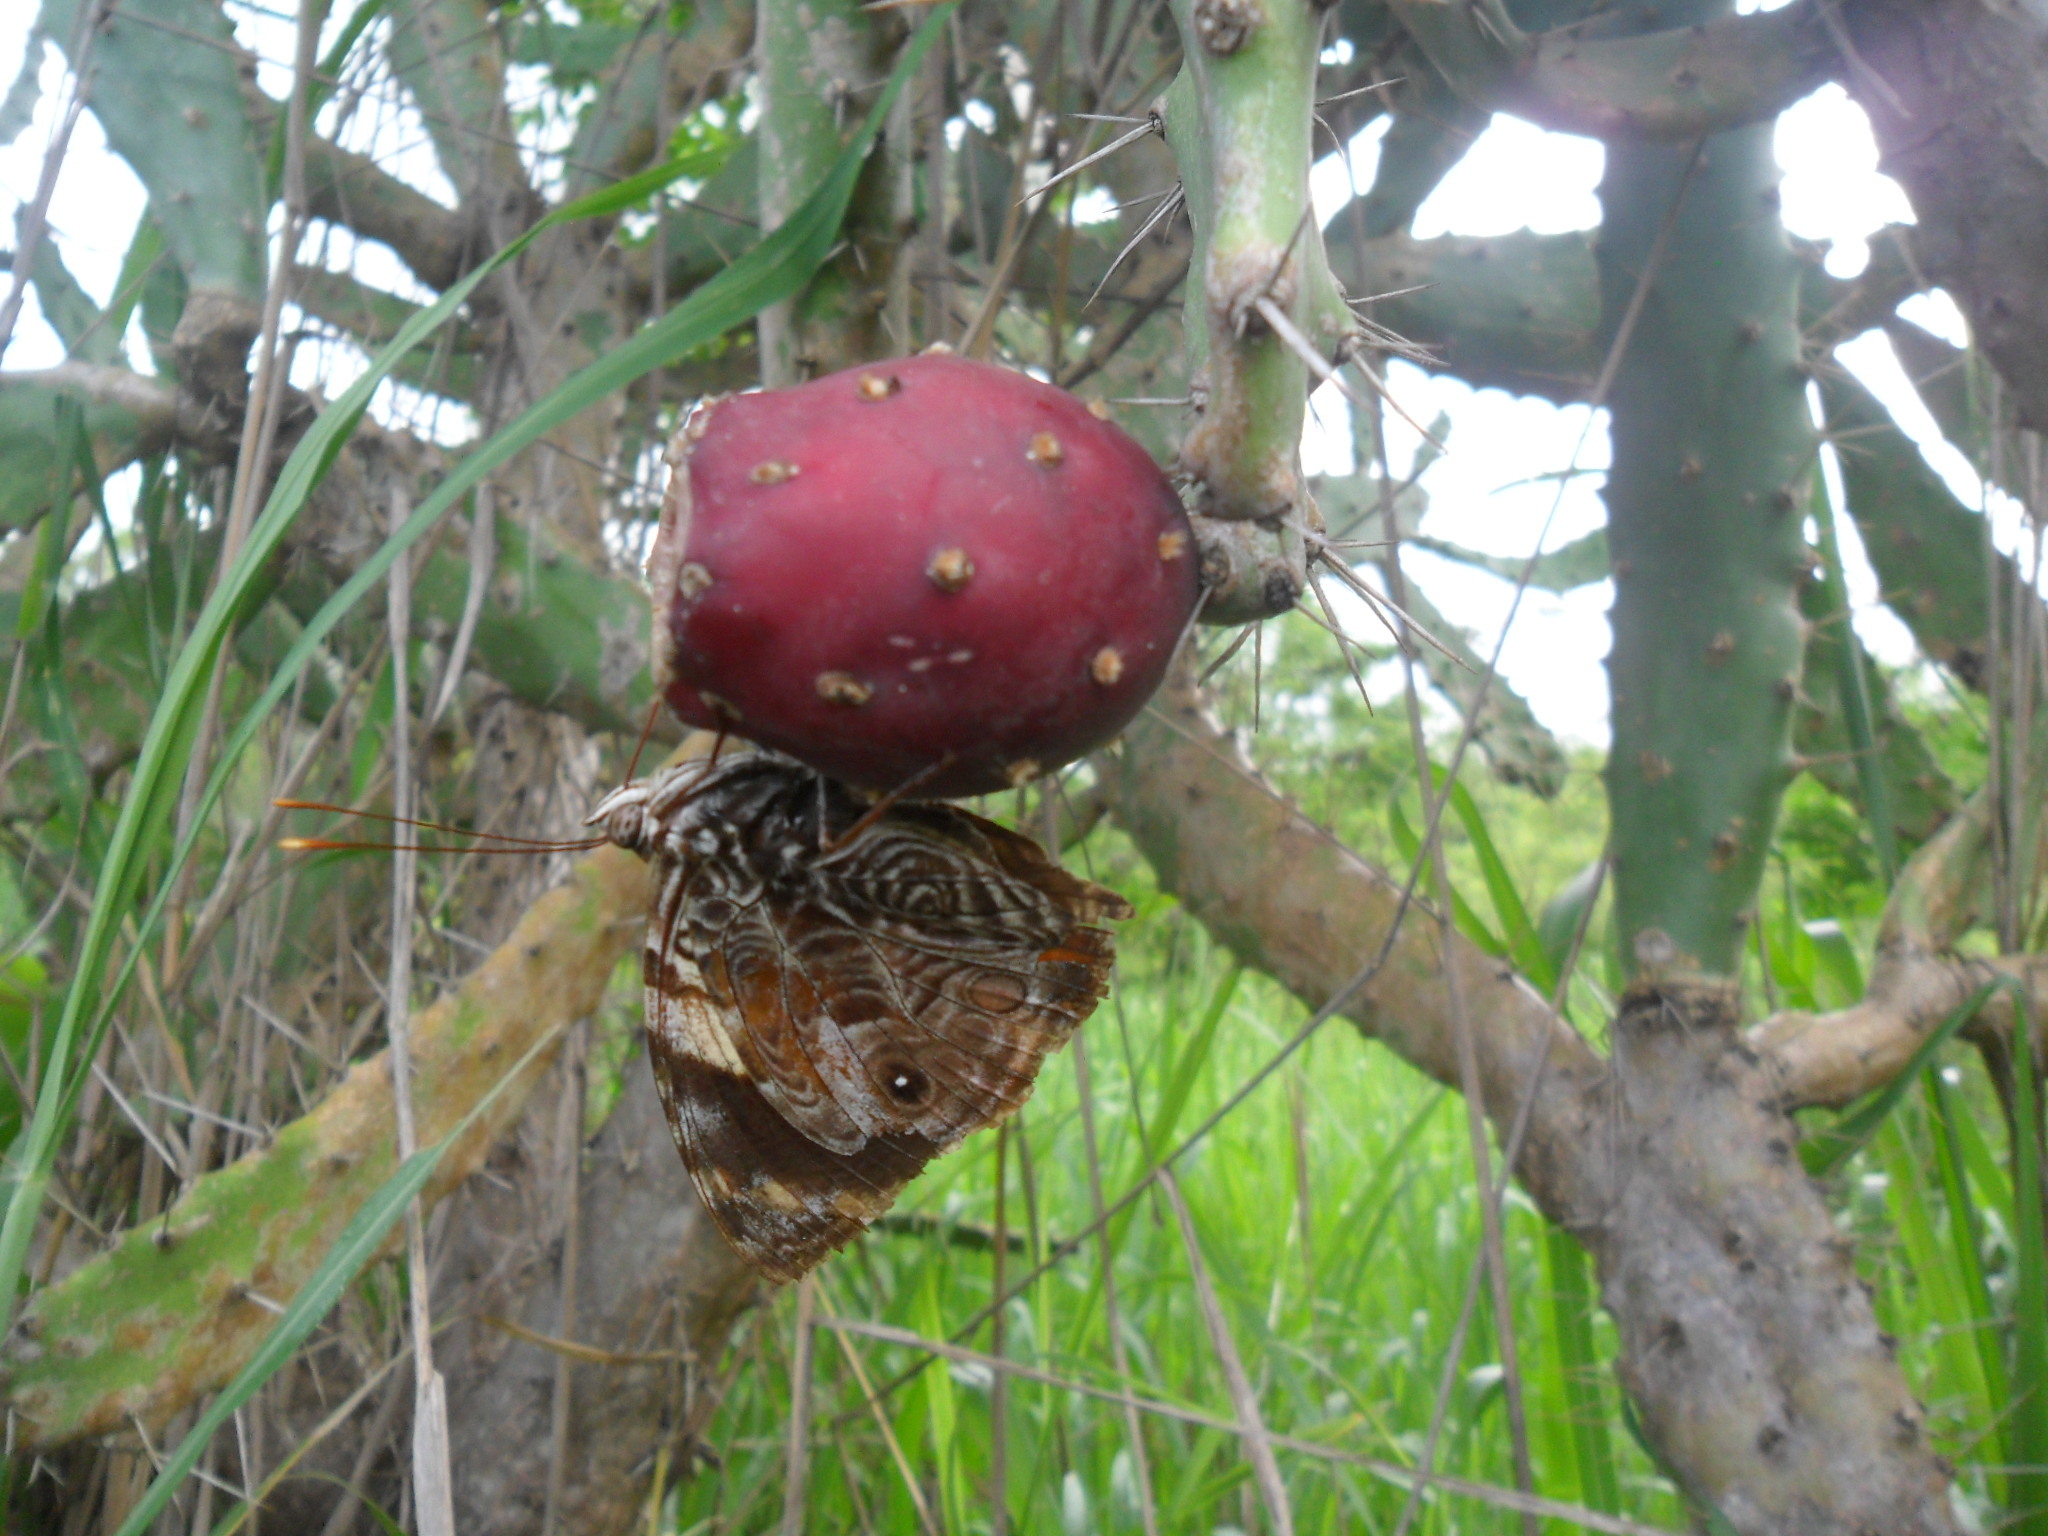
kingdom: Animalia
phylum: Arthropoda
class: Insecta
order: Lepidoptera
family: Nymphalidae
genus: Smyrna
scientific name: Smyrna blomfildia
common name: Blomfild's beauty
